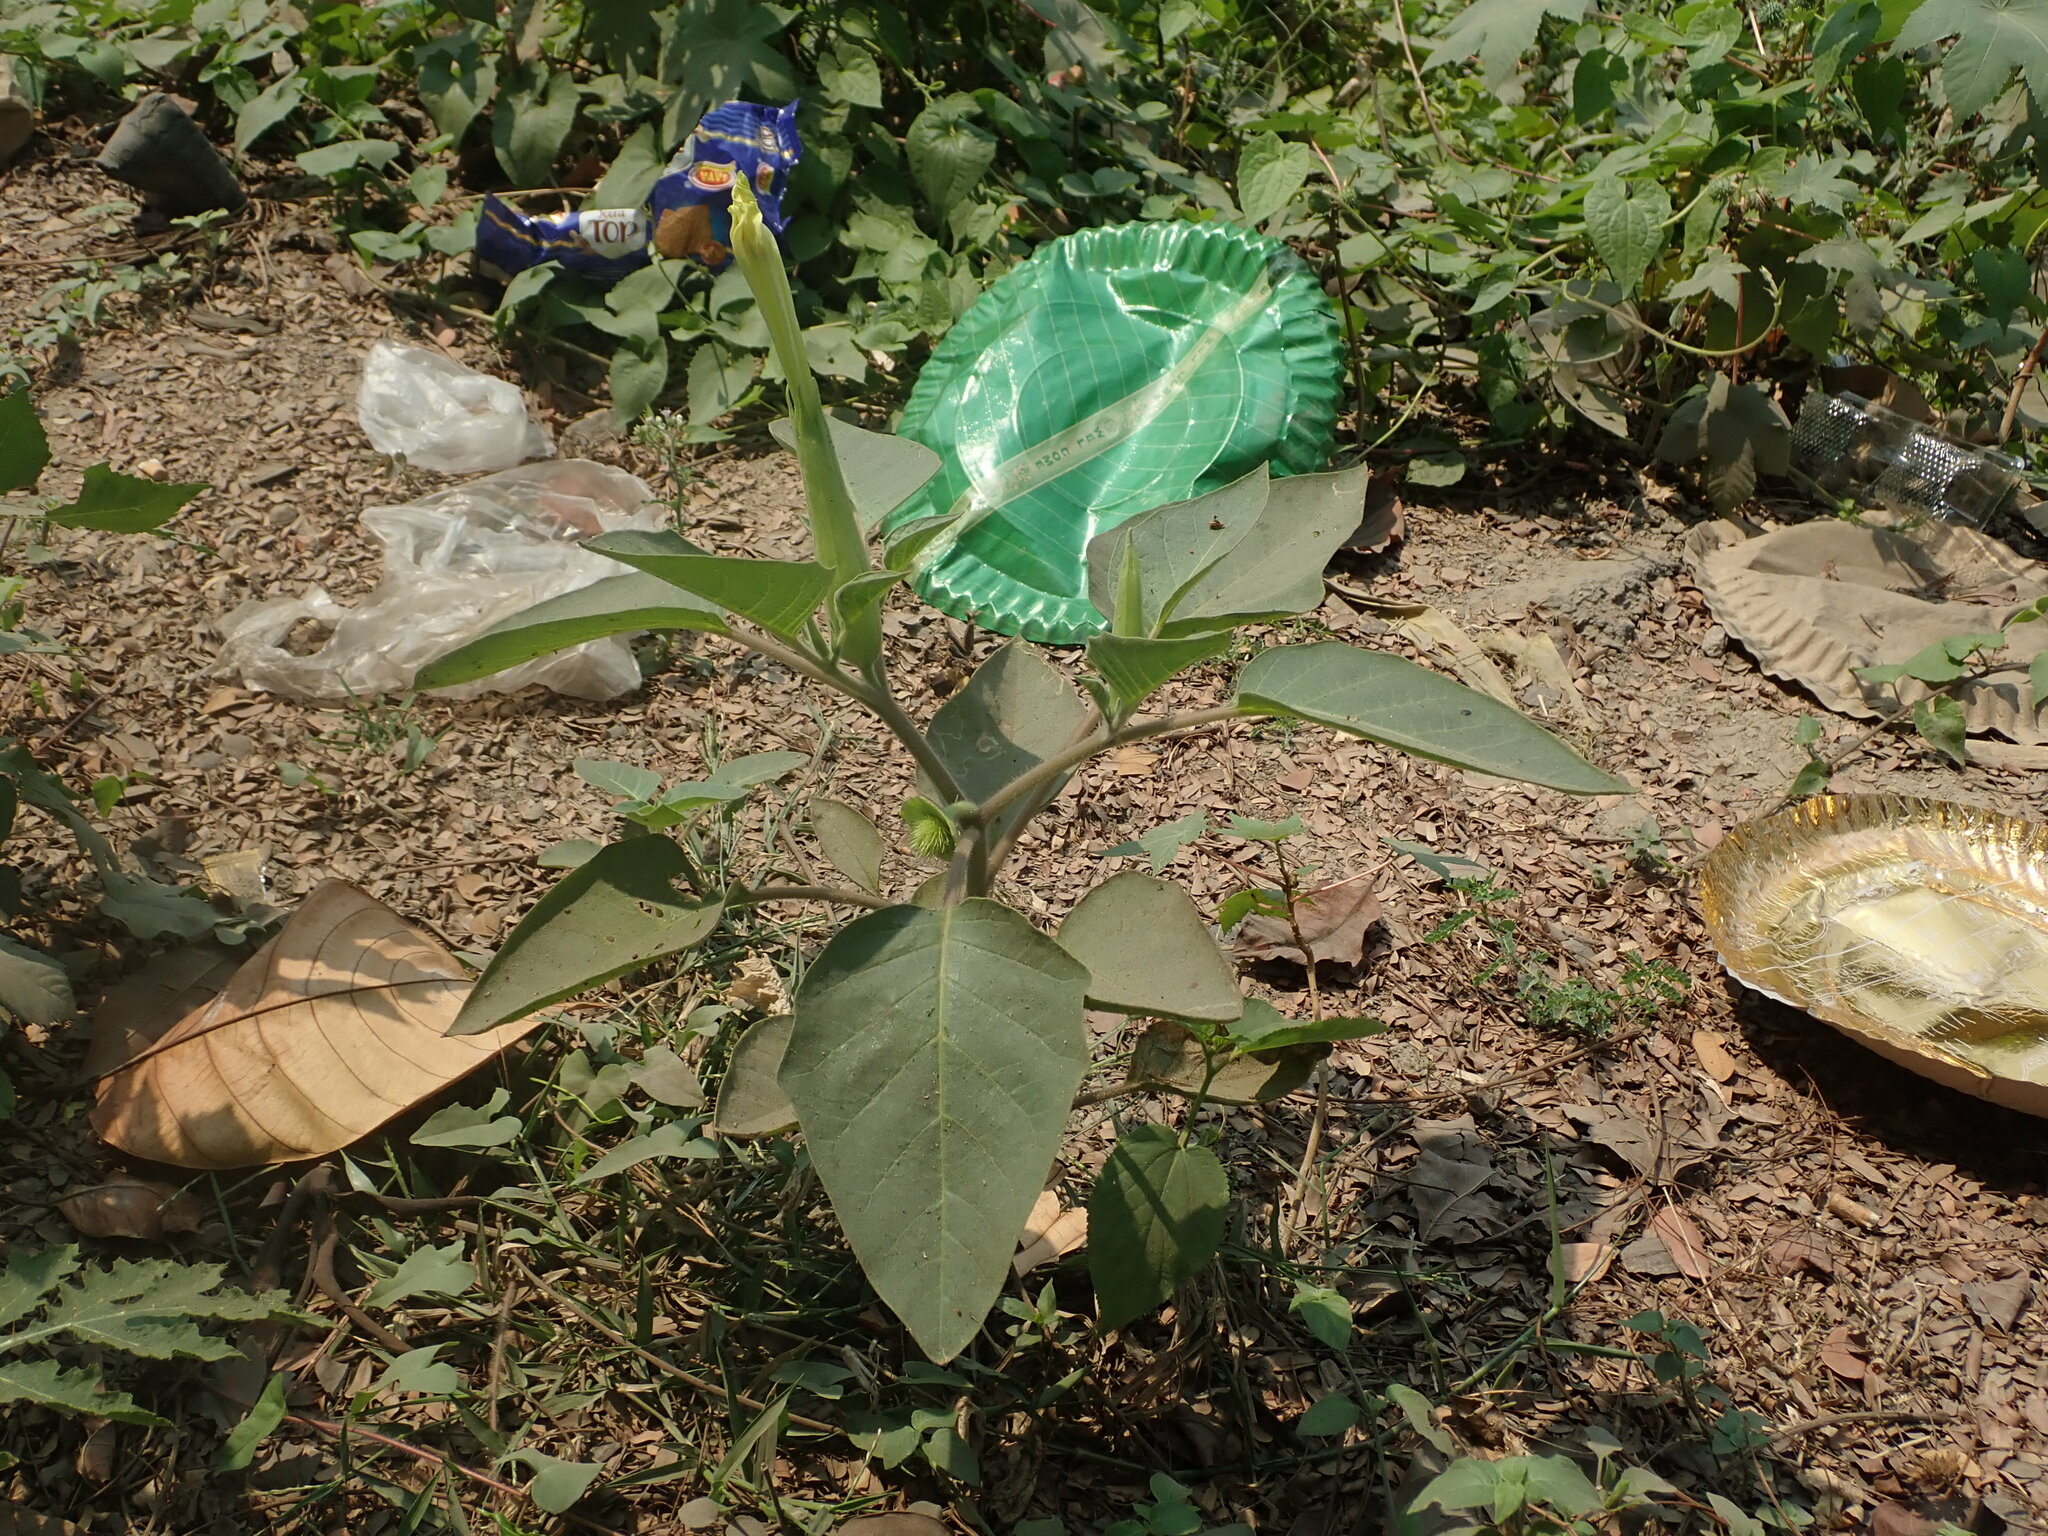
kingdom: Plantae
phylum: Tracheophyta
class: Magnoliopsida
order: Solanales
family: Solanaceae
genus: Datura
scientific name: Datura innoxia
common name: Downy thorn-apple
